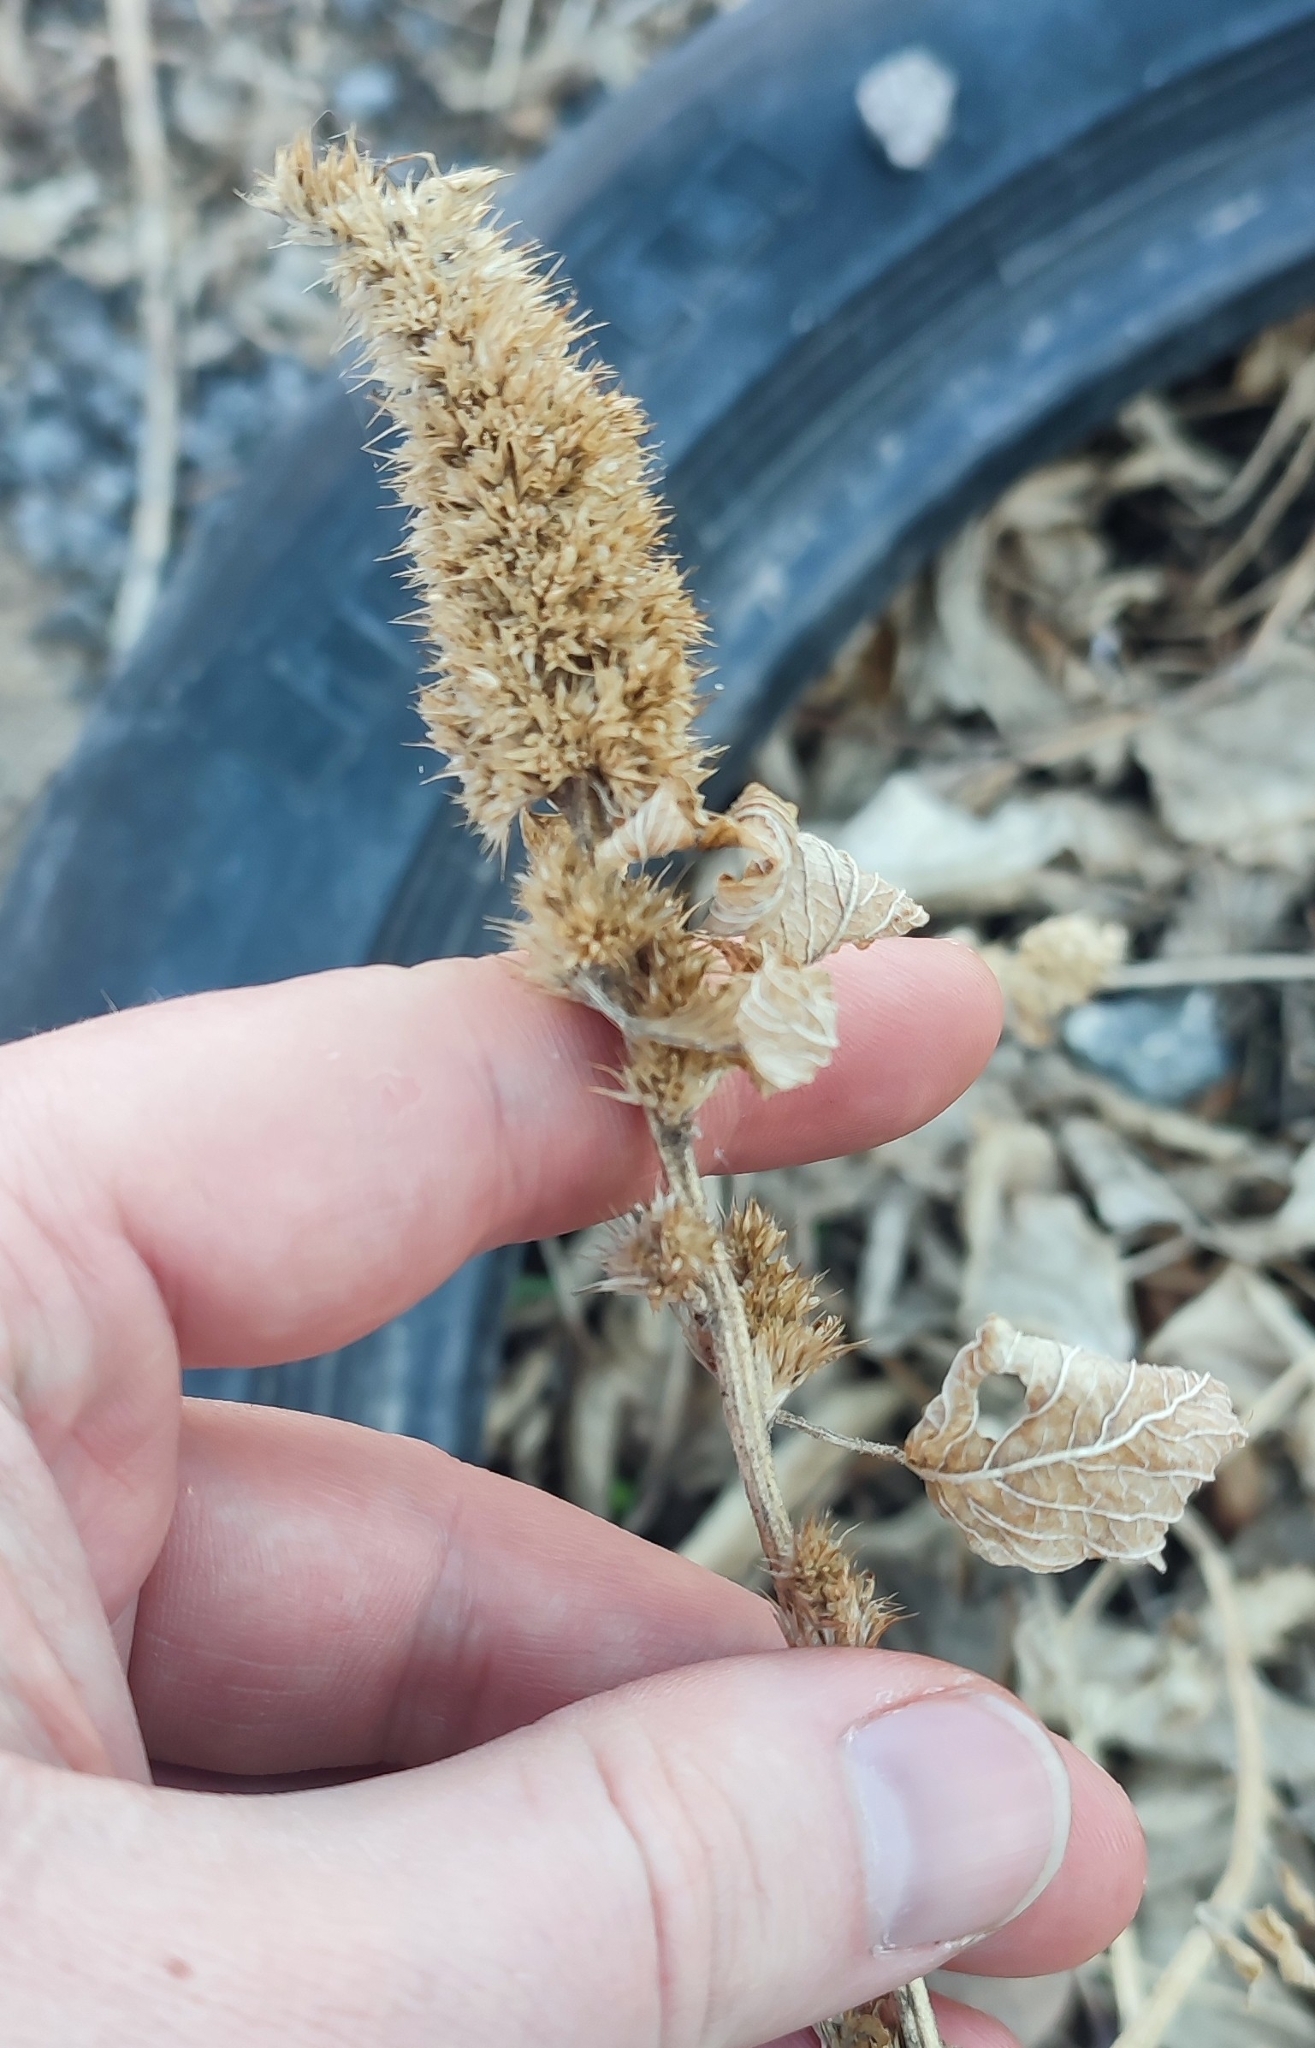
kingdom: Plantae
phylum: Tracheophyta
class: Magnoliopsida
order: Caryophyllales
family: Amaranthaceae
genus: Amaranthus
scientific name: Amaranthus retroflexus
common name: Redroot amaranth
